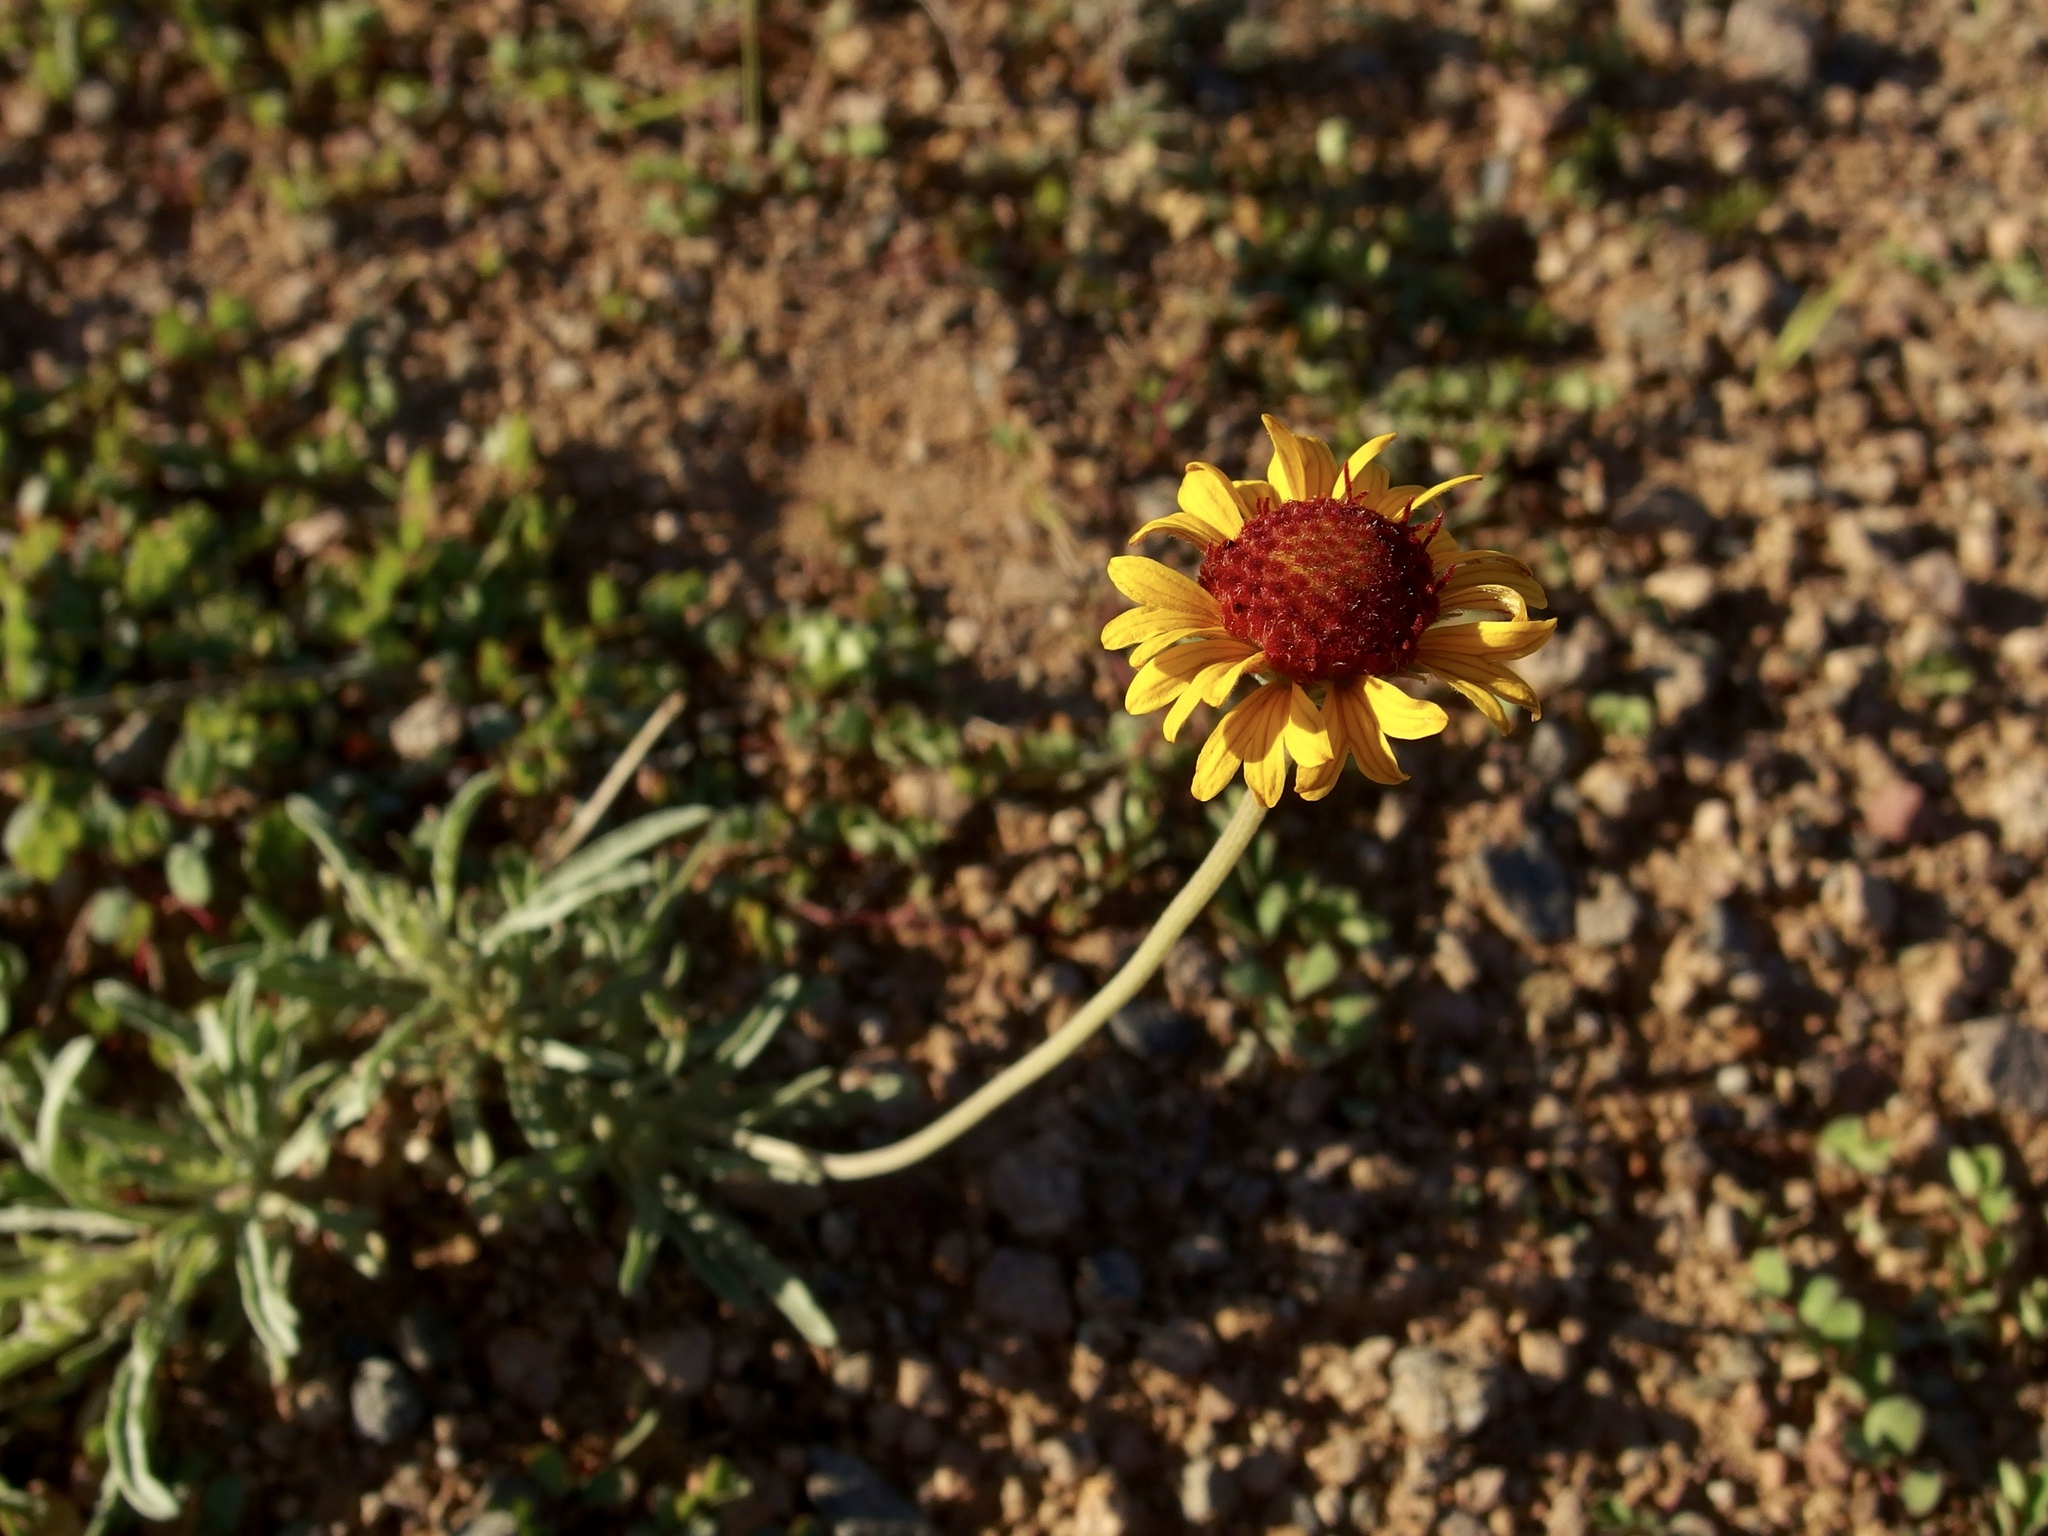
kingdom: Plantae
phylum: Tracheophyta
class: Magnoliopsida
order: Asterales
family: Asteraceae
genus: Gaillardia
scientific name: Gaillardia pinnatifida
